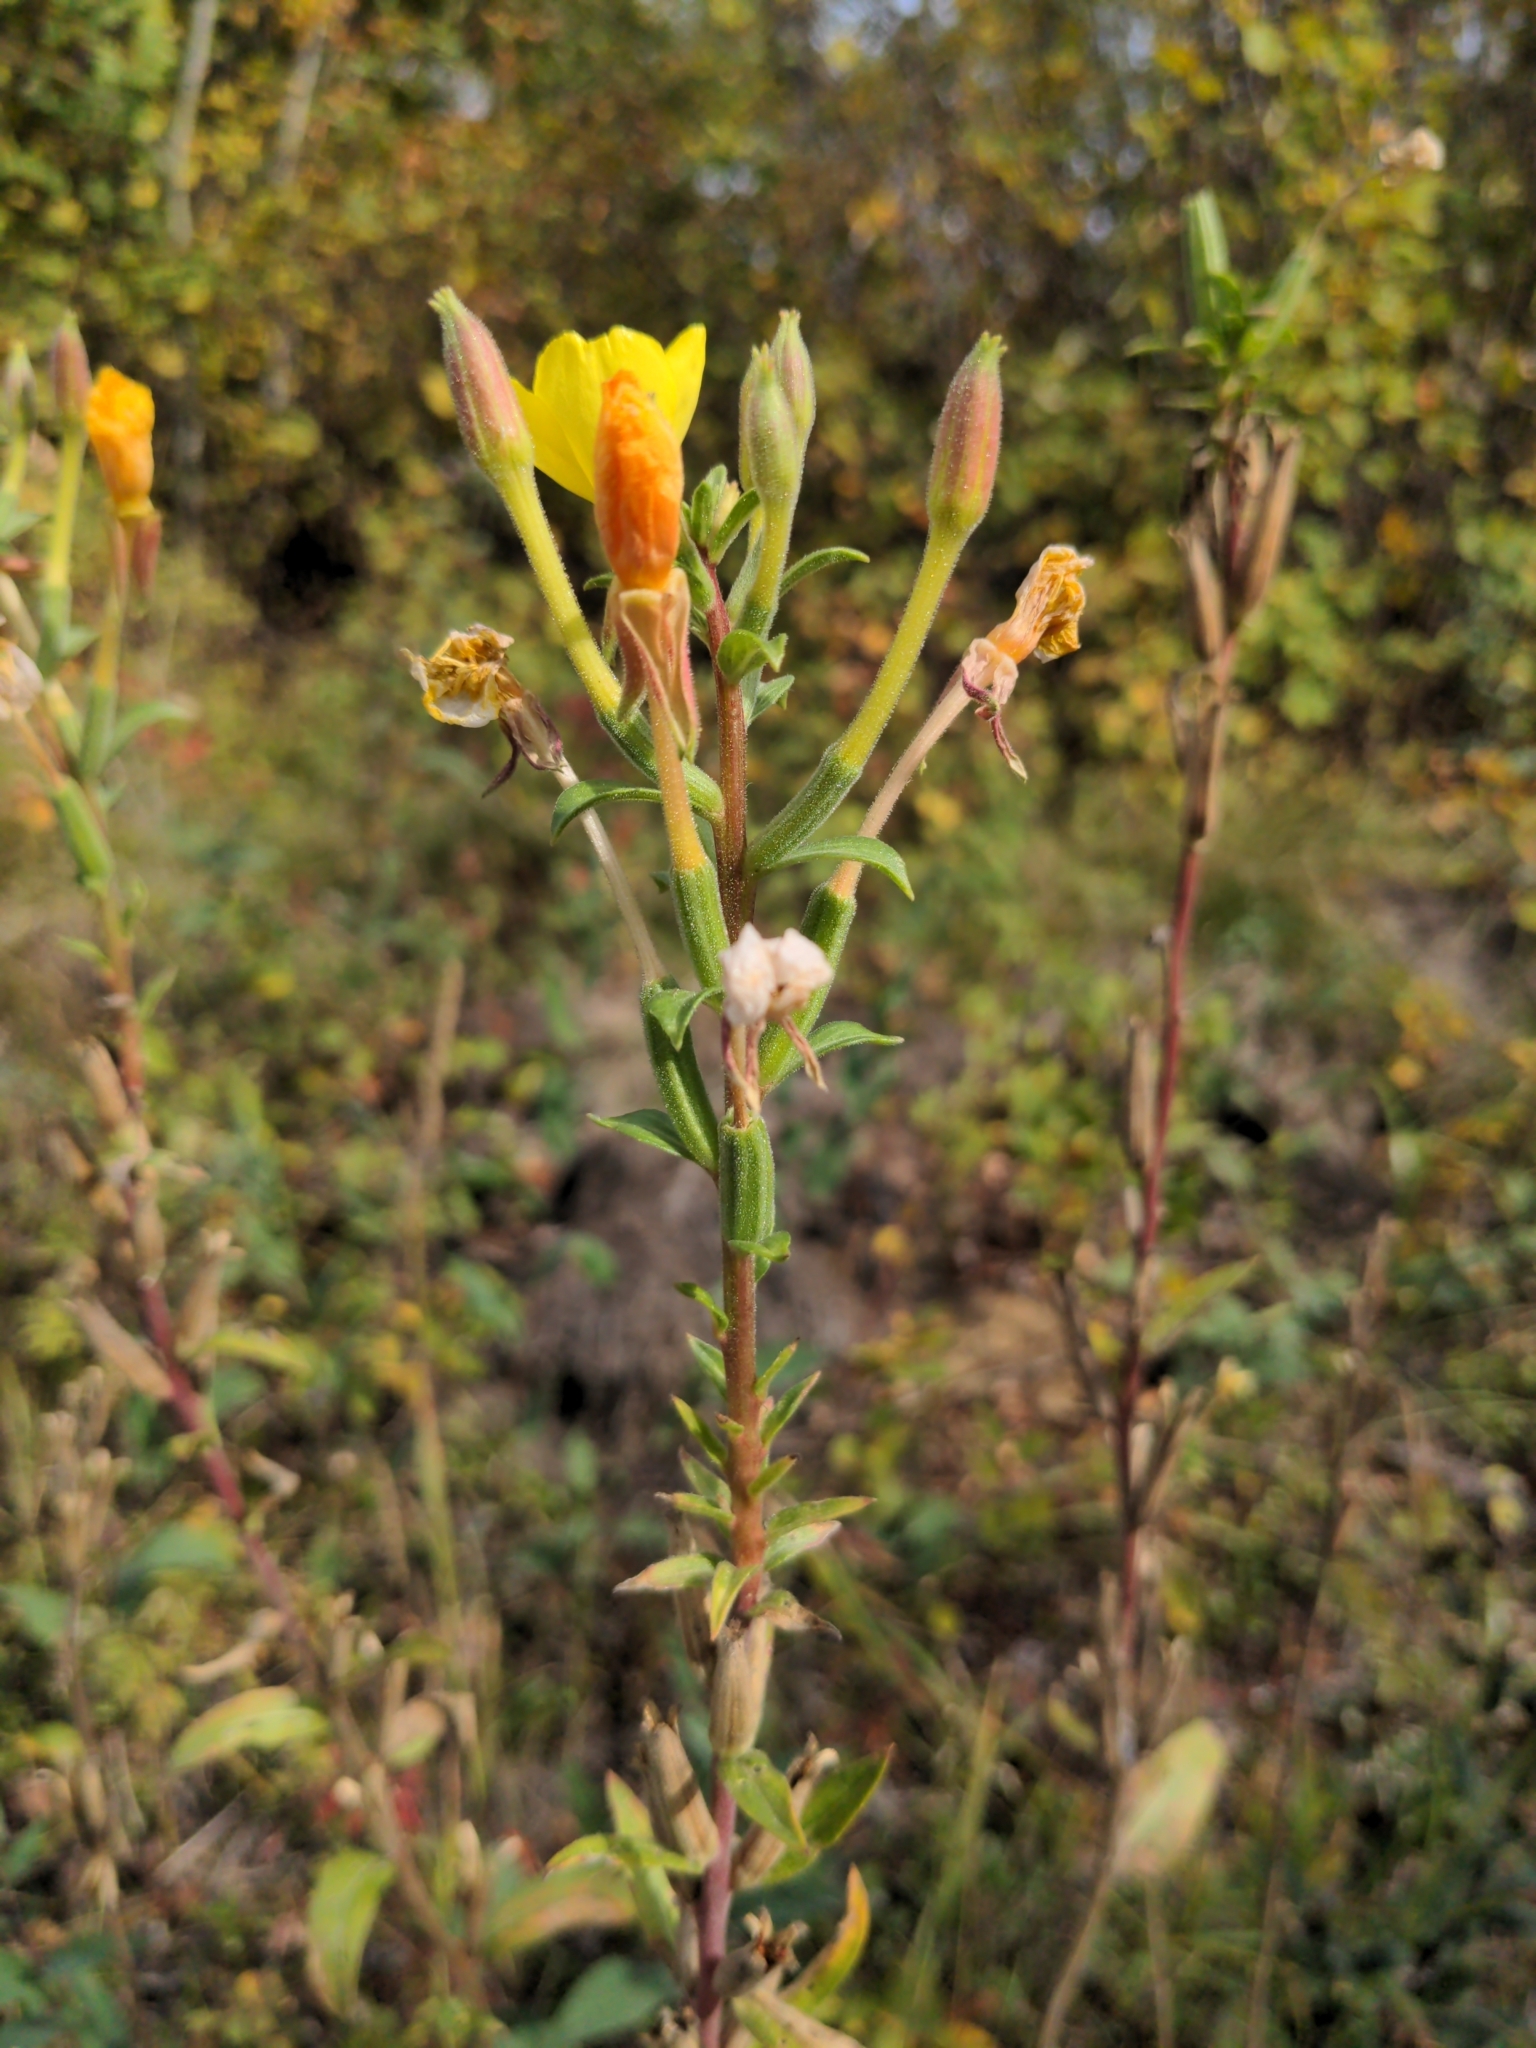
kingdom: Plantae
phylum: Tracheophyta
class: Magnoliopsida
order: Myrtales
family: Onagraceae
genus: Oenothera
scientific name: Oenothera biennis
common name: Common evening-primrose
